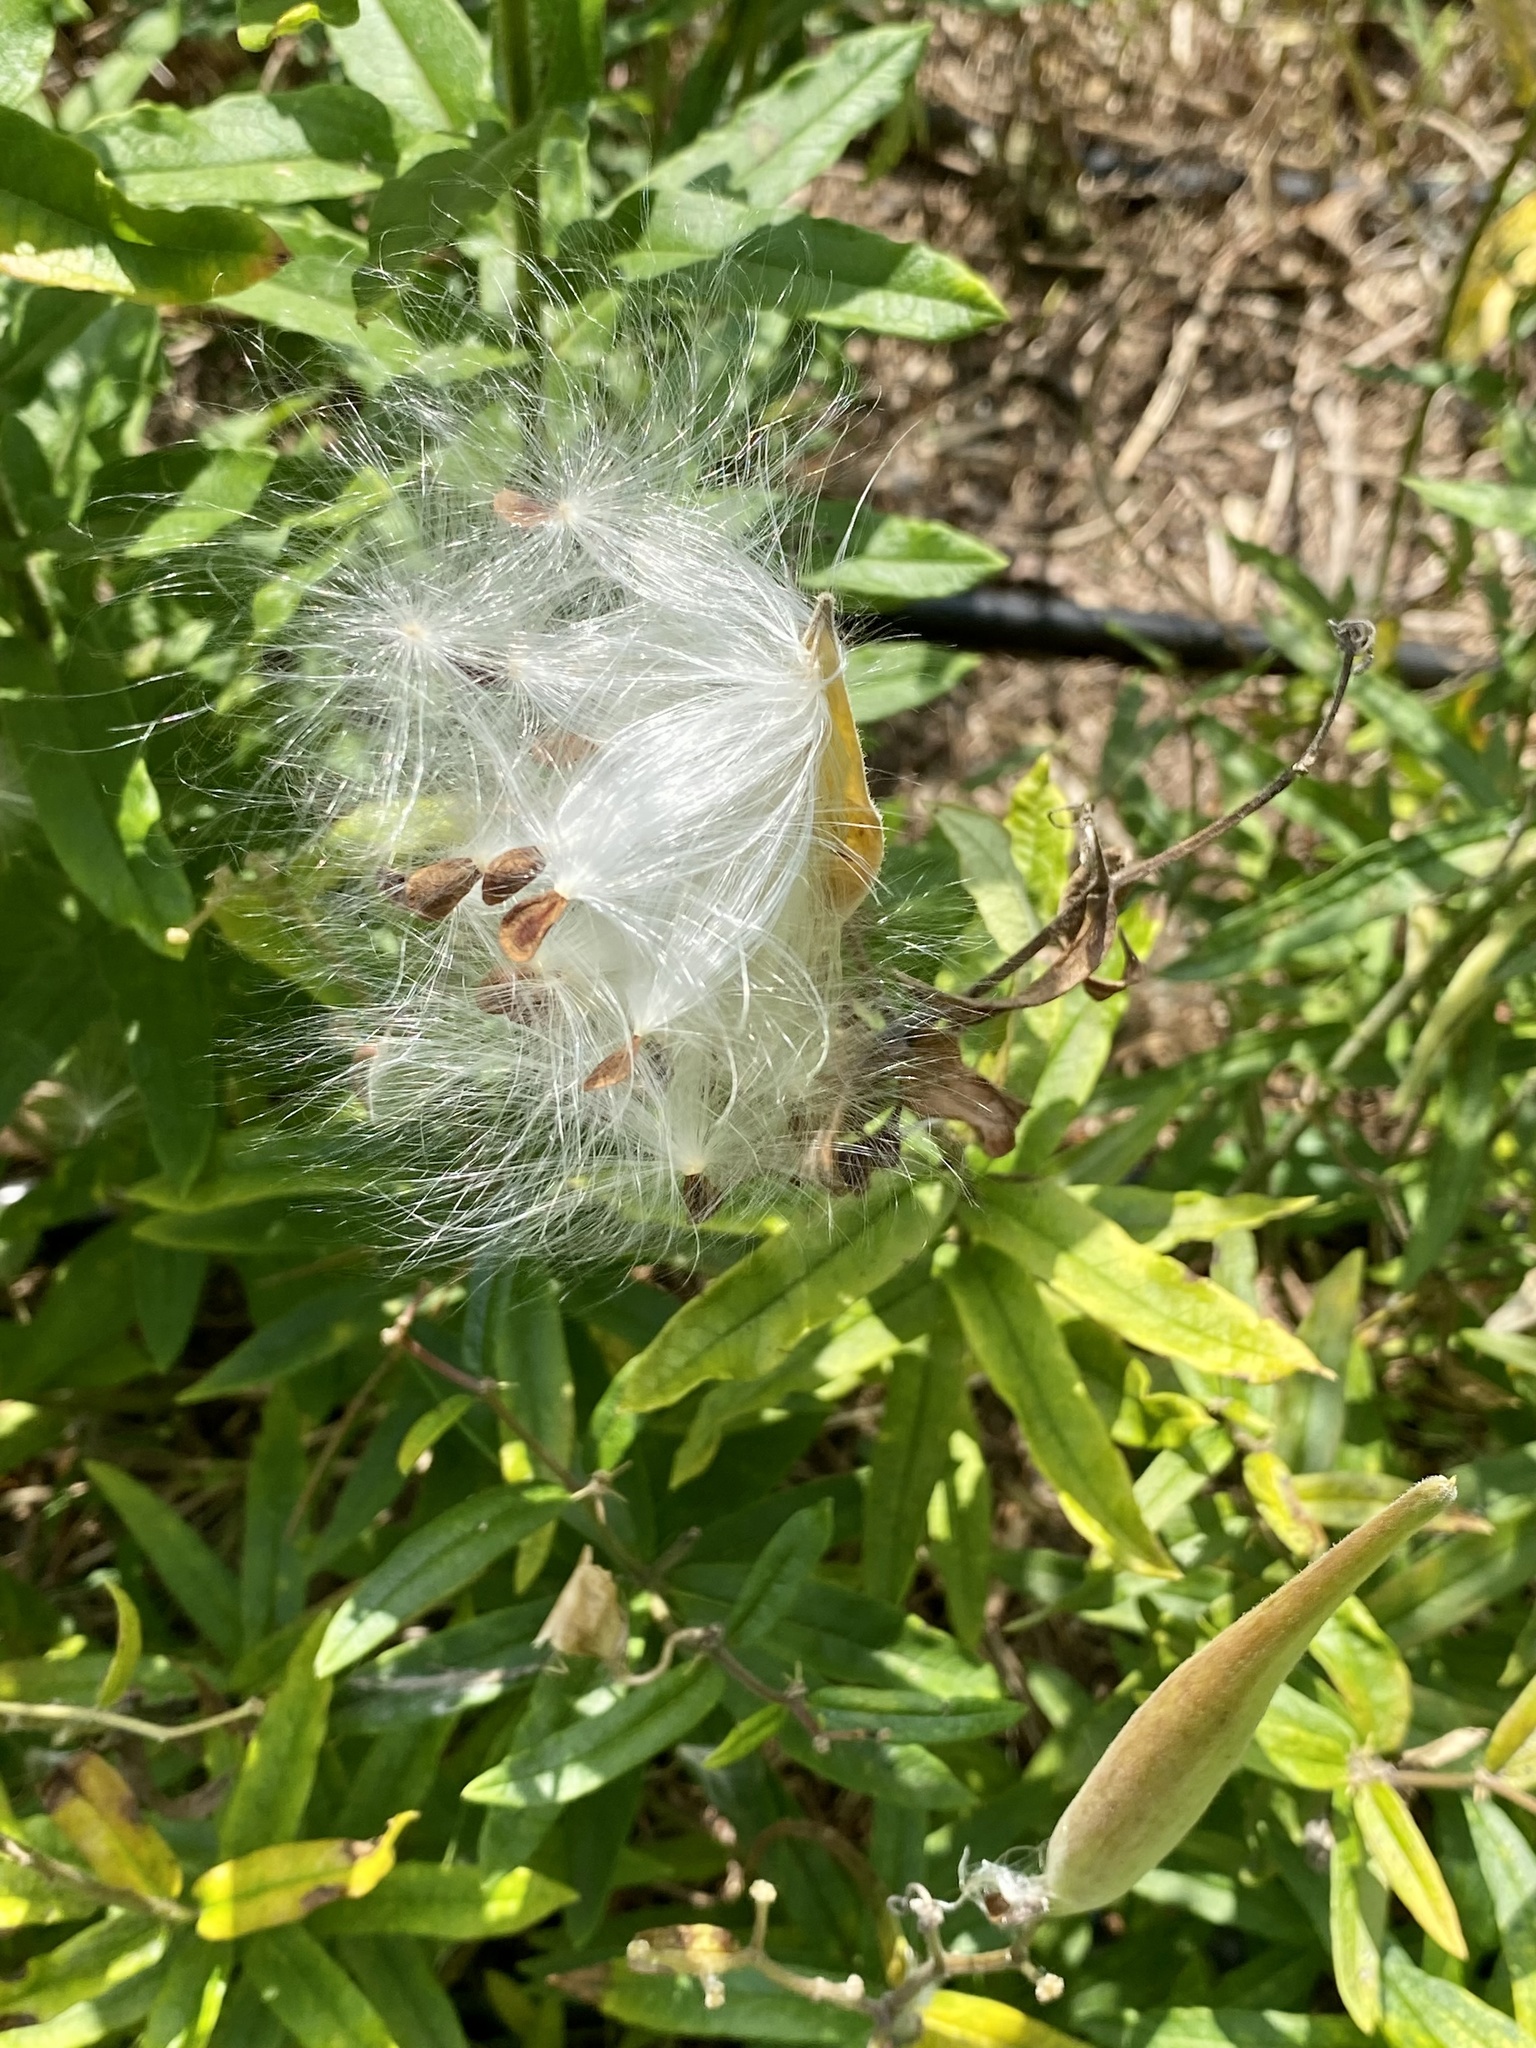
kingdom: Plantae
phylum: Tracheophyta
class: Magnoliopsida
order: Gentianales
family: Apocynaceae
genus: Asclepias
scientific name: Asclepias tuberosa
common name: Butterfly milkweed
